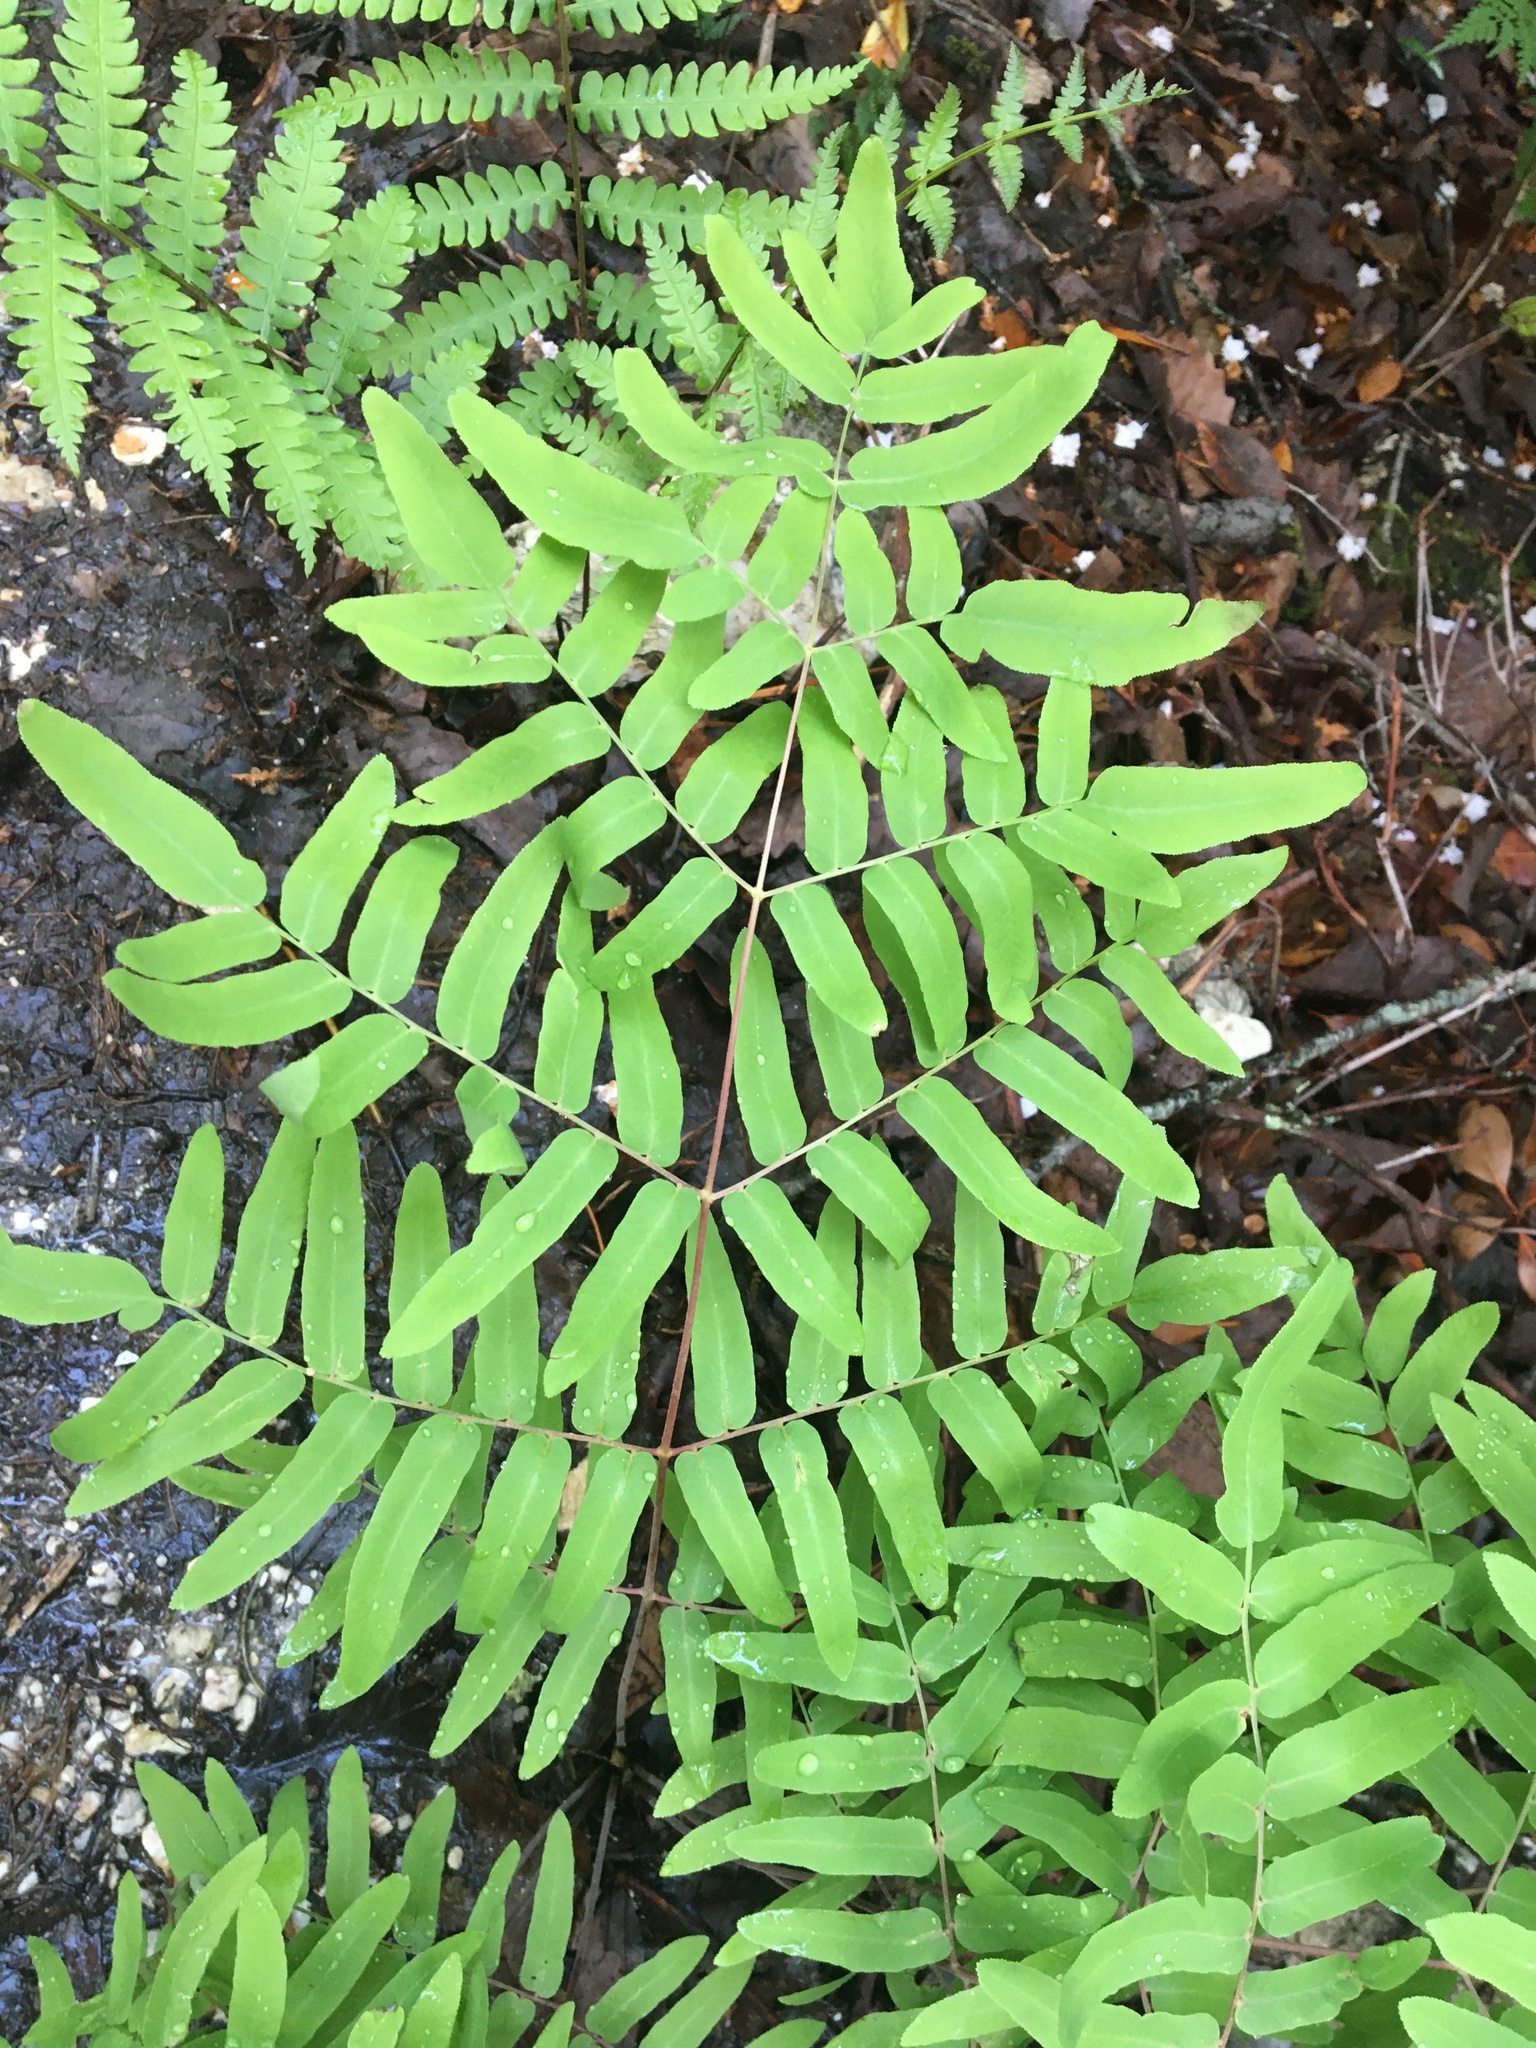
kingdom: Plantae
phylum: Tracheophyta
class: Polypodiopsida
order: Osmundales
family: Osmundaceae
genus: Osmunda
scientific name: Osmunda spectabilis
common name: American royal fern
